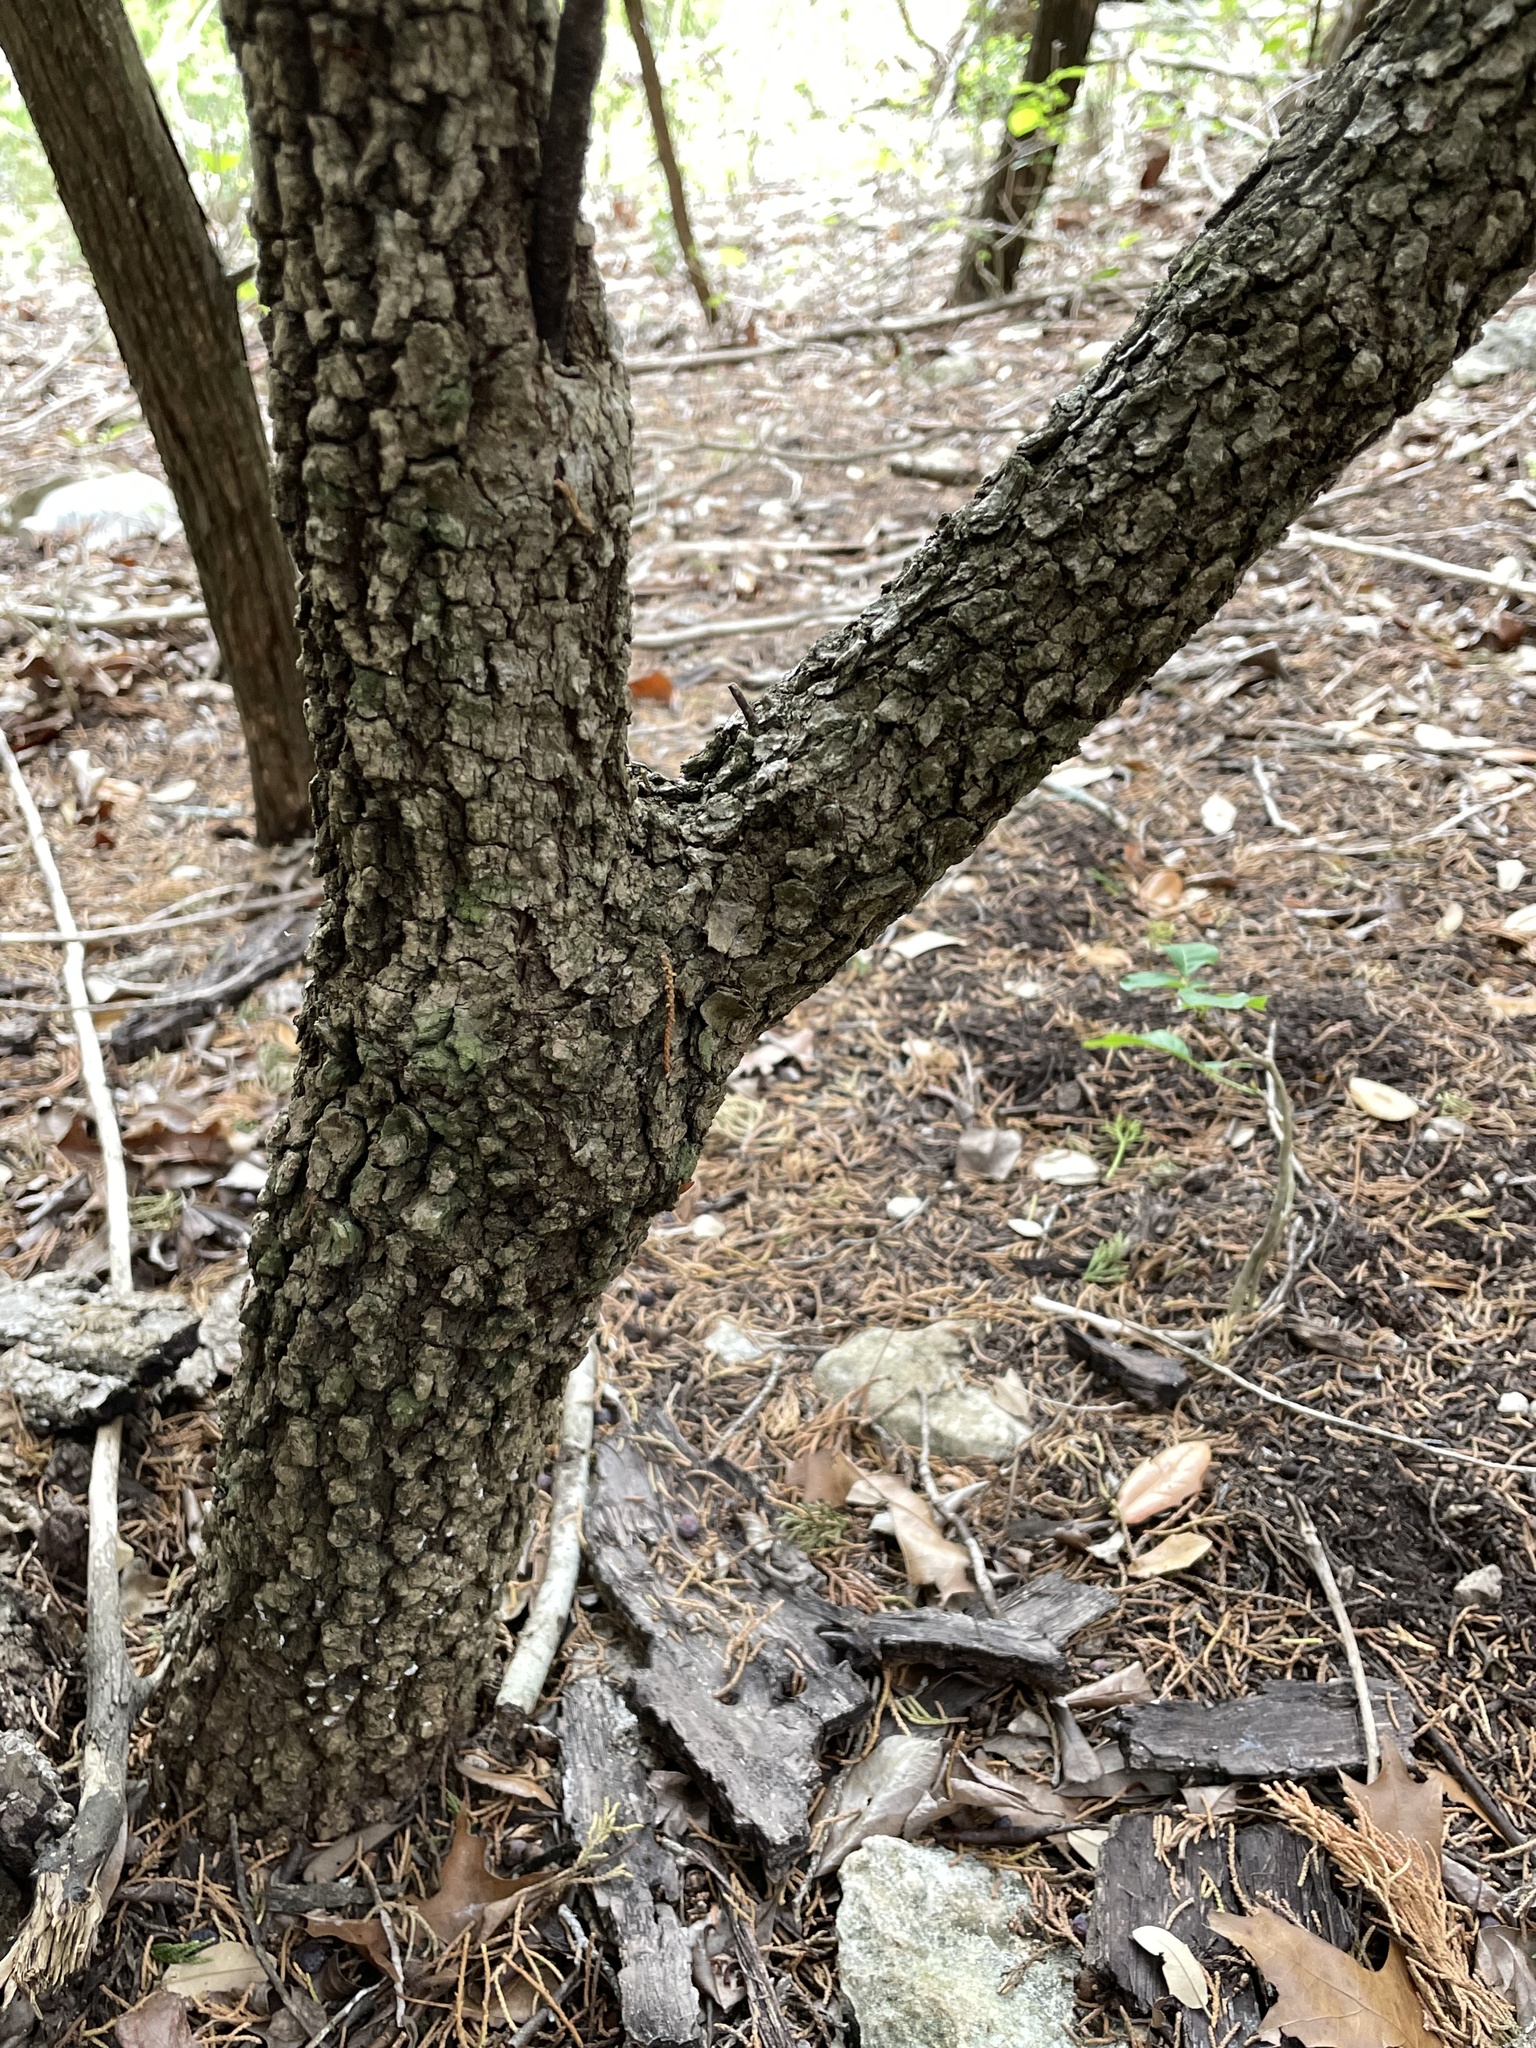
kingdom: Plantae
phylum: Tracheophyta
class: Magnoliopsida
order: Dipsacales
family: Viburnaceae
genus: Viburnum
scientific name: Viburnum rufidulum
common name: Blue haw
